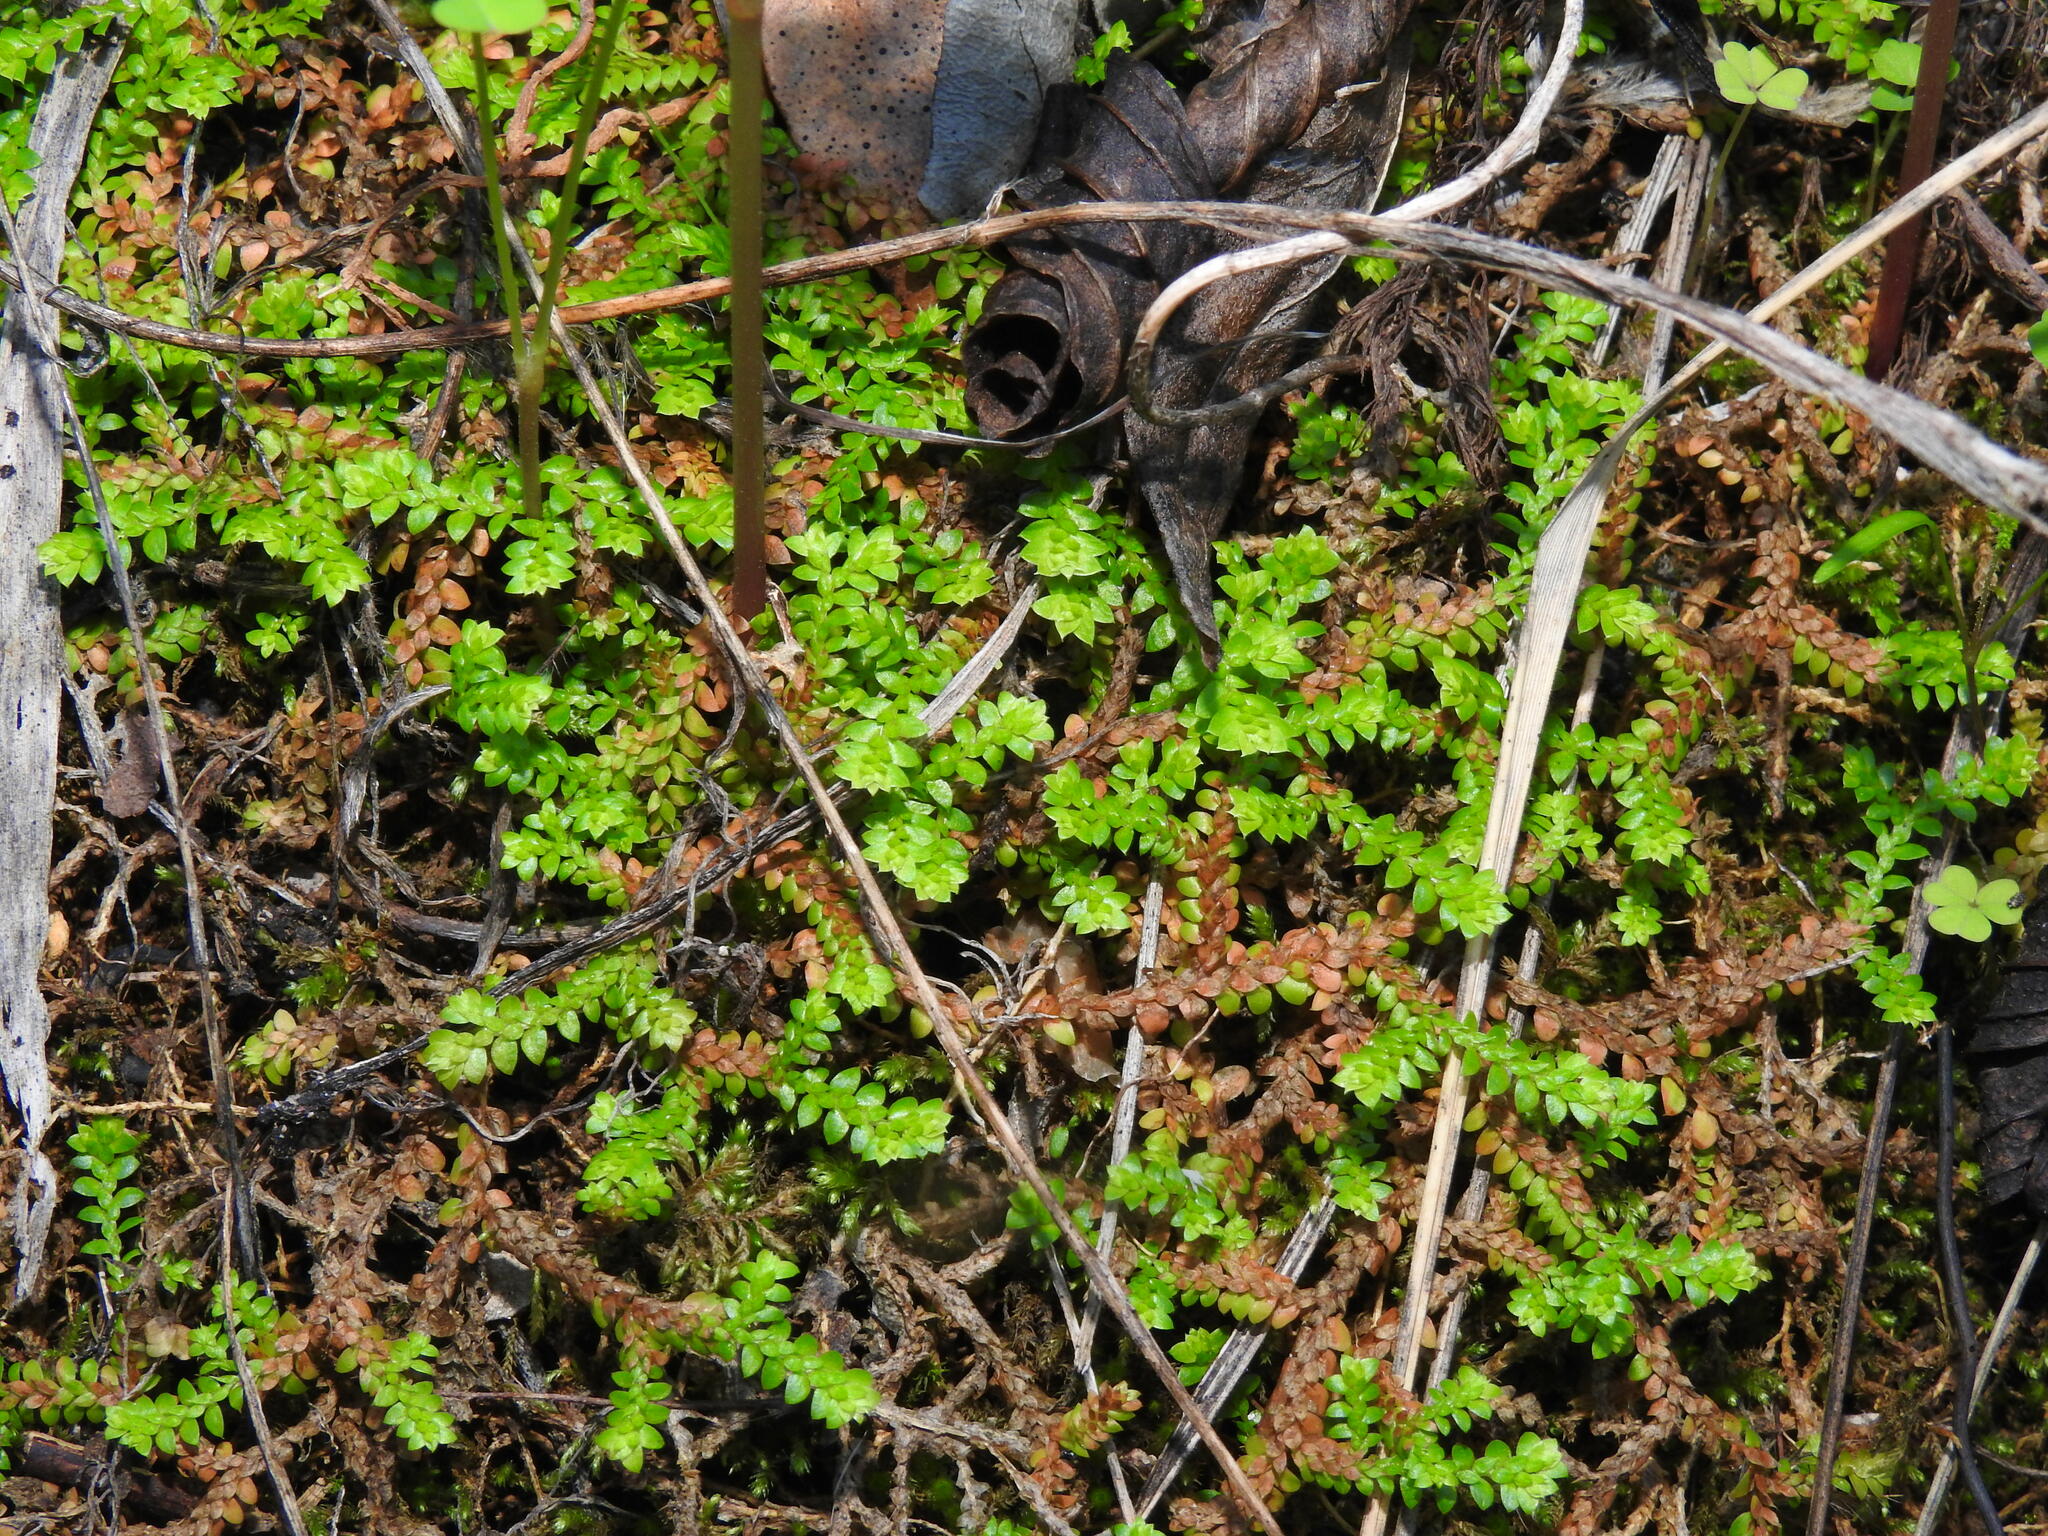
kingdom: Plantae
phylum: Tracheophyta
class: Lycopodiopsida
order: Selaginellales
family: Selaginellaceae
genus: Selaginella
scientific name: Selaginella denticulata
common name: Toothed-leaved clubmoss
